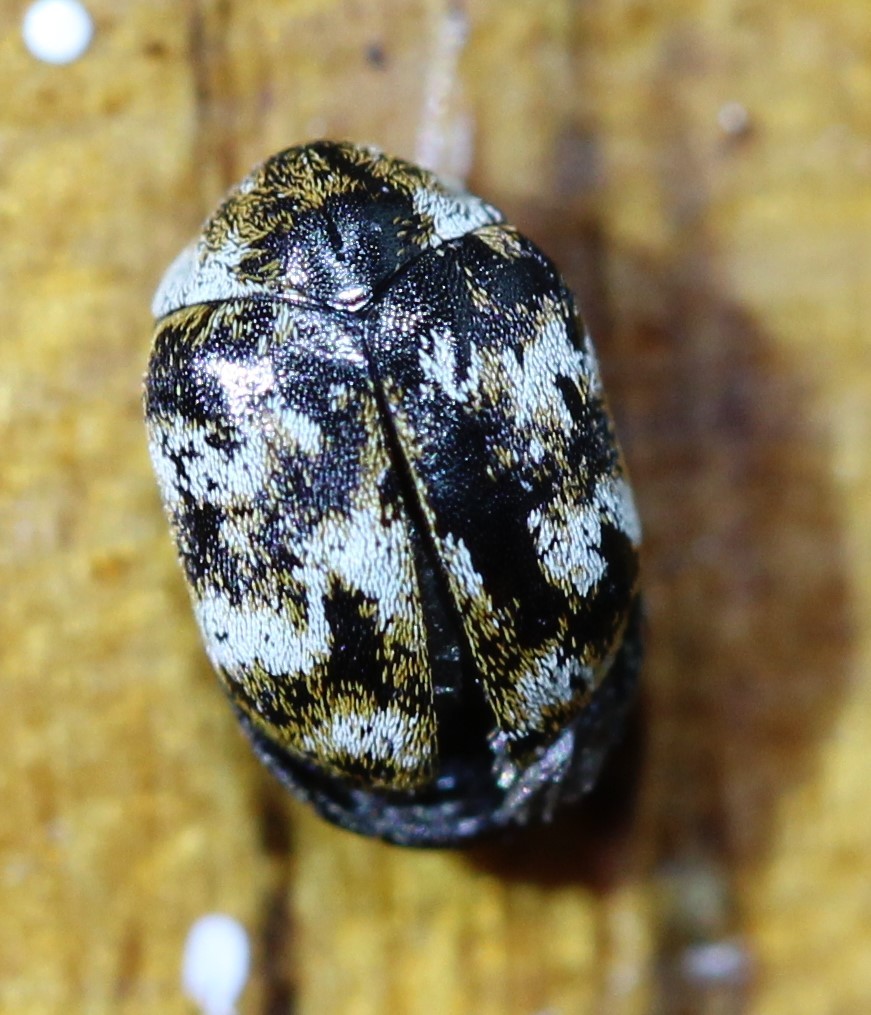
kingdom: Animalia
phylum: Arthropoda
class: Insecta
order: Coleoptera
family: Dermestidae
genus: Anthrenus
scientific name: Anthrenus verbasci
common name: Varied carpet beetle
